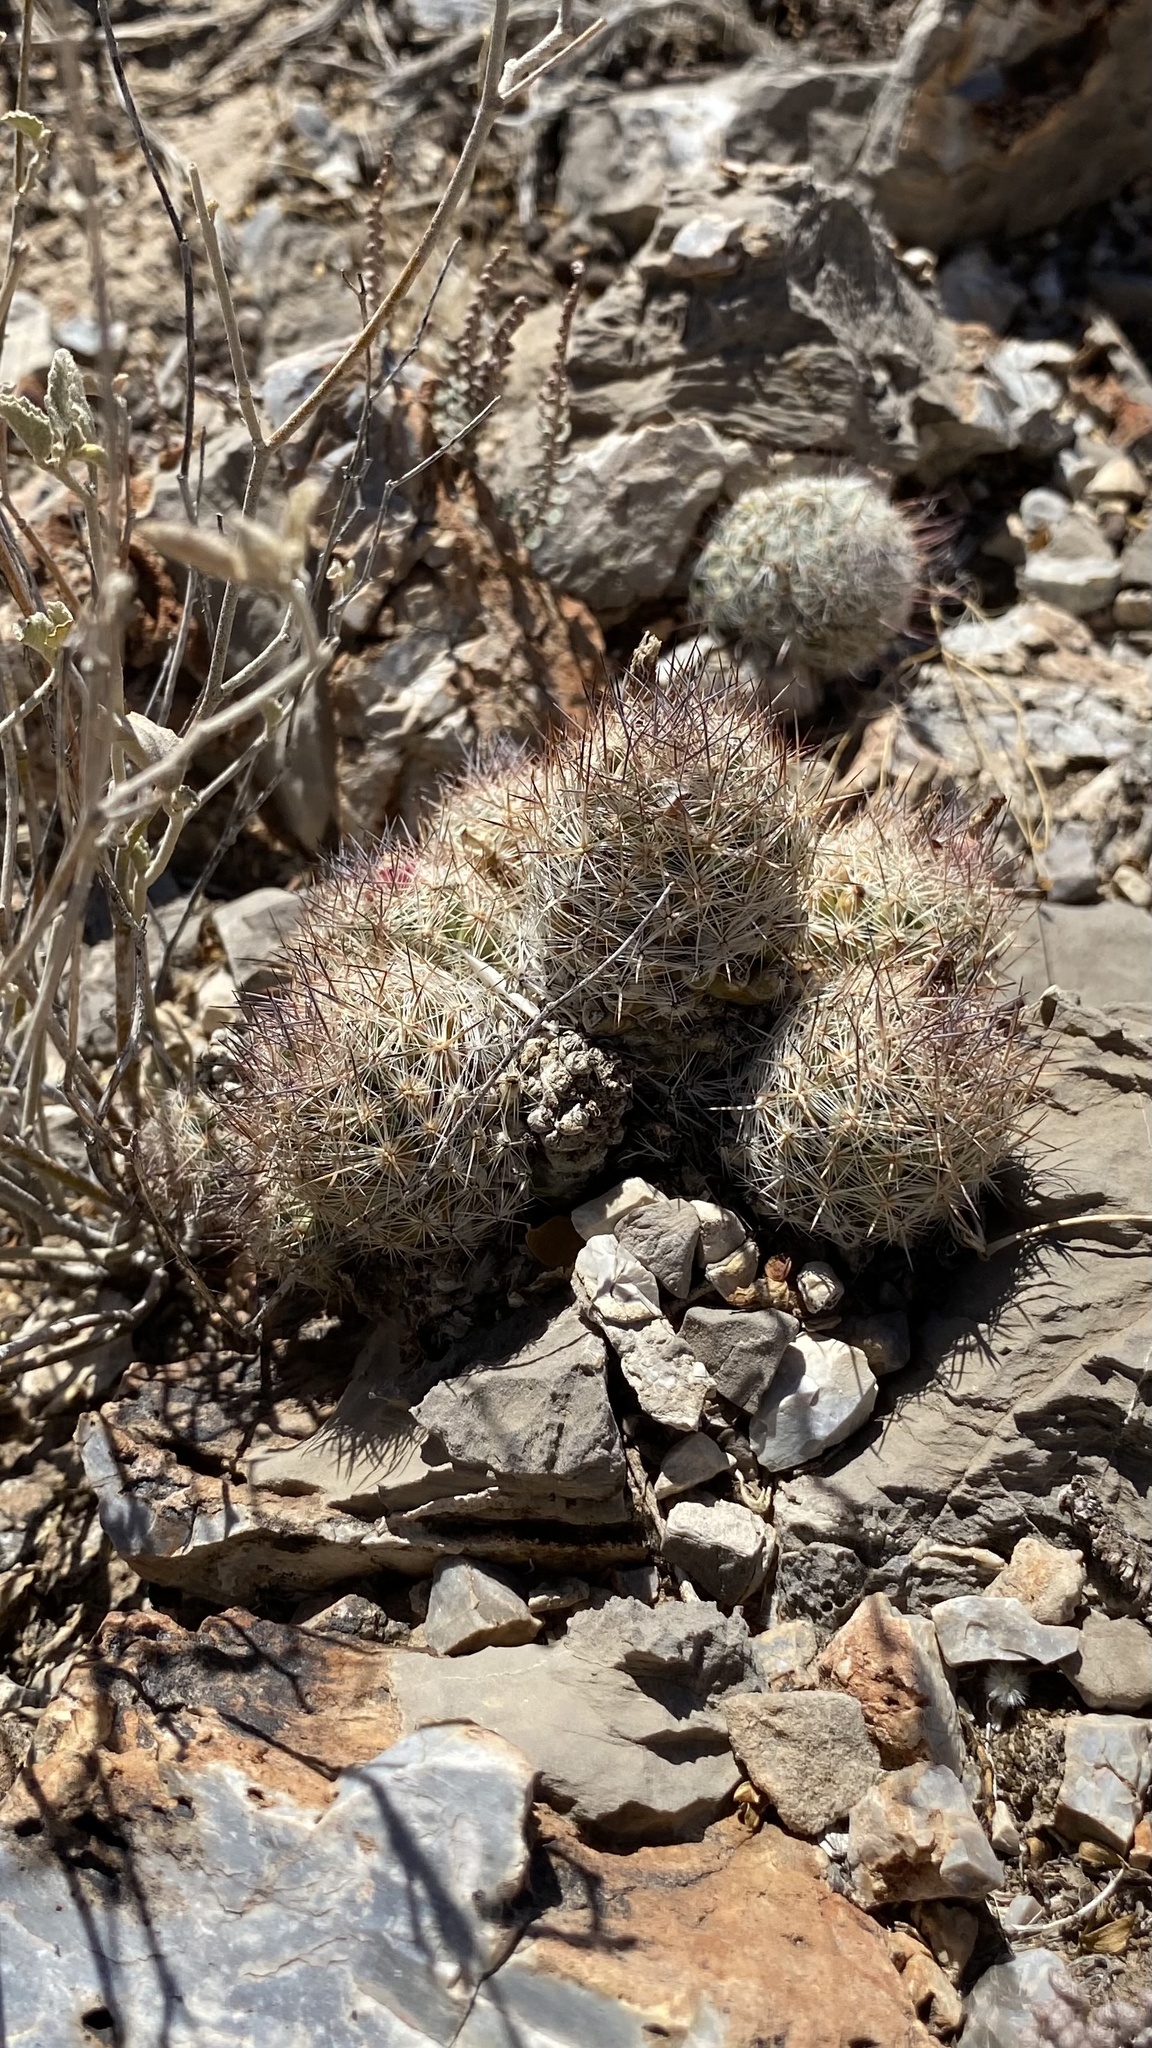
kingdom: Plantae
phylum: Tracheophyta
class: Magnoliopsida
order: Caryophyllales
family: Cactaceae
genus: Pelecyphora
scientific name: Pelecyphora tuberculosa
